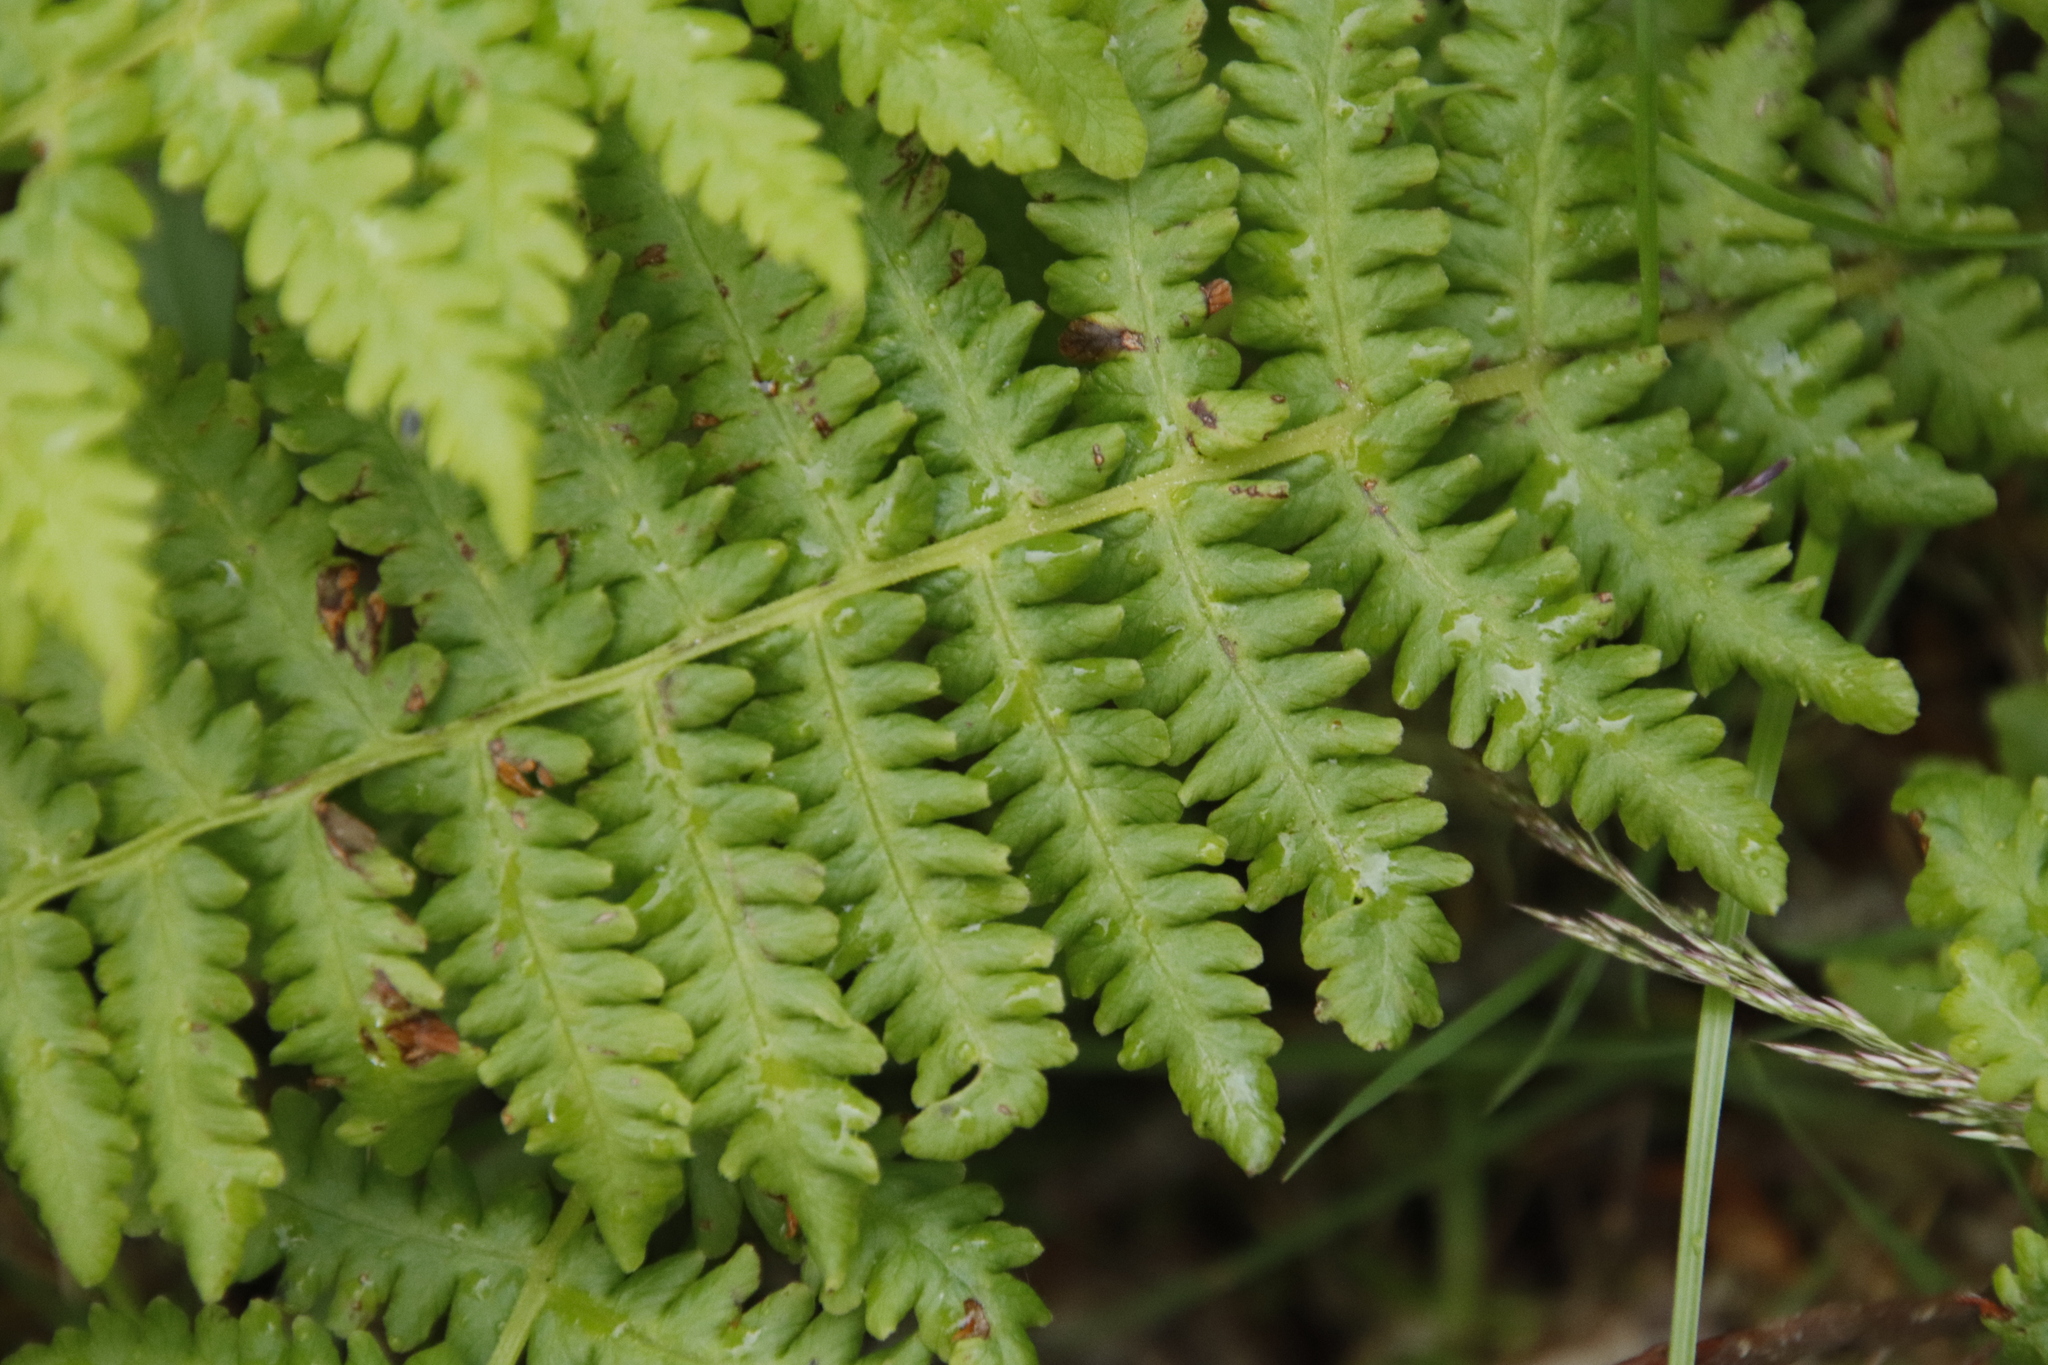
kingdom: Plantae
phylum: Tracheophyta
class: Polypodiopsida
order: Polypodiales
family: Thelypteridaceae
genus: Oreopteris
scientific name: Oreopteris limbosperma
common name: Lemon-scented fern
